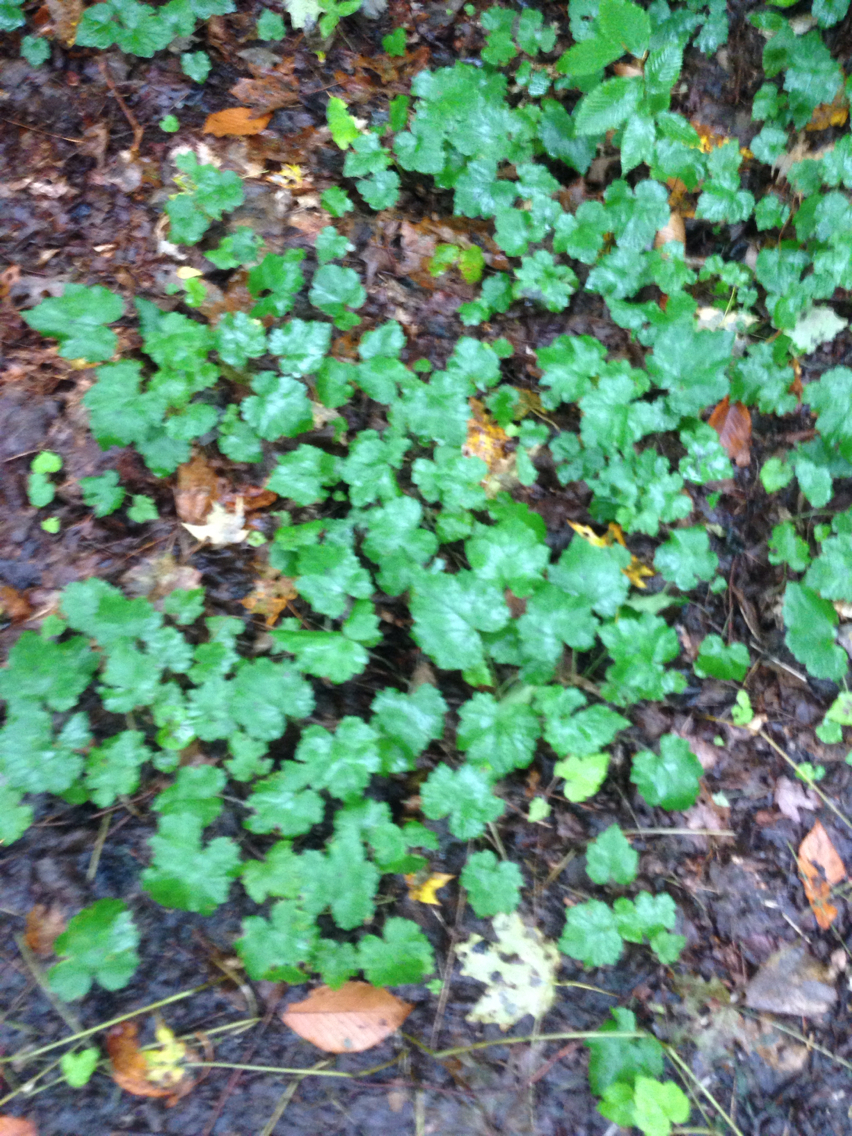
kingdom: Plantae
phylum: Tracheophyta
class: Magnoliopsida
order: Saxifragales
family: Saxifragaceae
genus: Tiarella
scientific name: Tiarella stolonifera
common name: Stoloniferous foamflower
